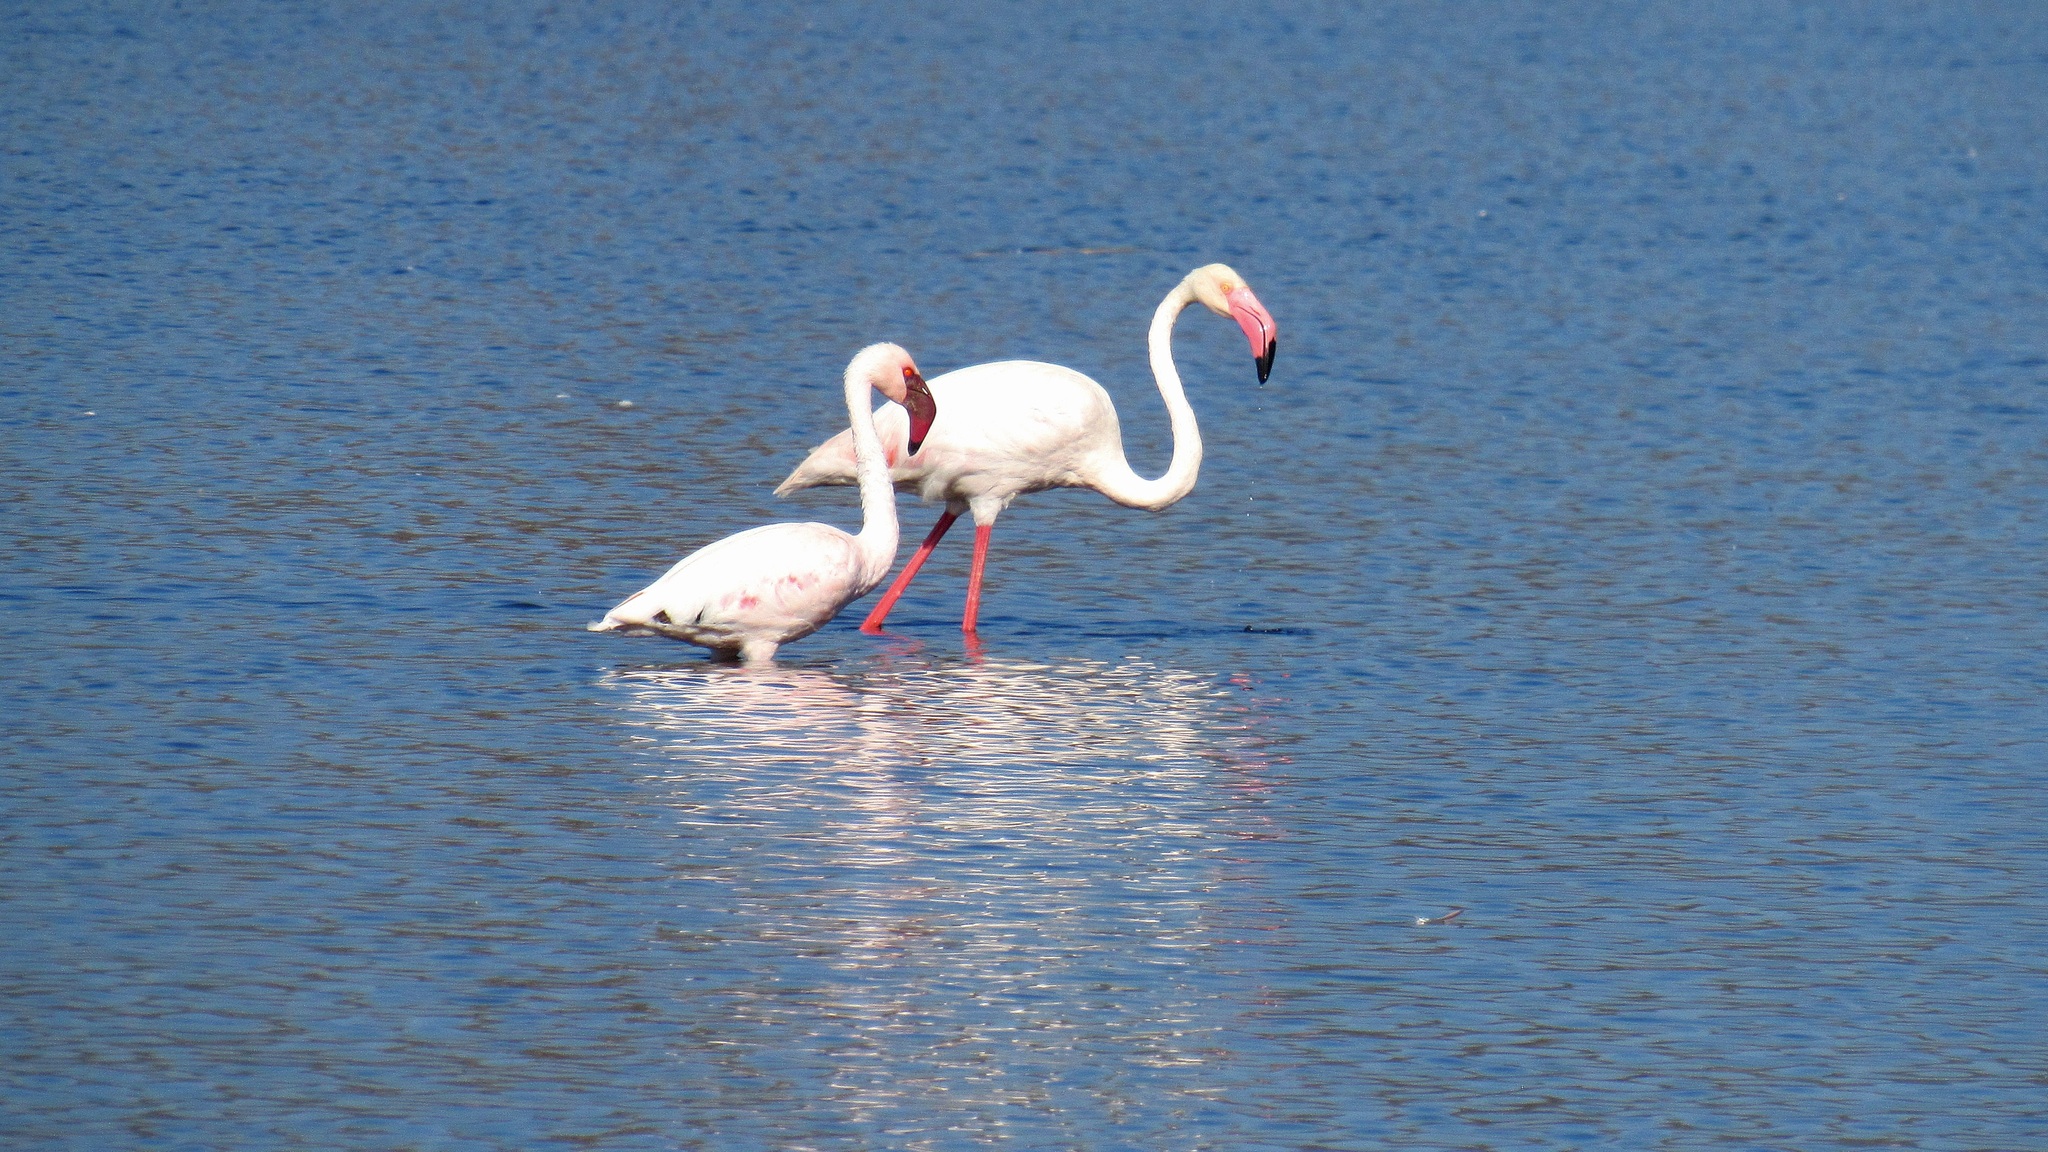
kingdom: Animalia
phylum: Chordata
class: Aves
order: Phoenicopteriformes
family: Phoenicopteridae
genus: Phoeniconaias
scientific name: Phoeniconaias minor
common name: Lesser flamingo
